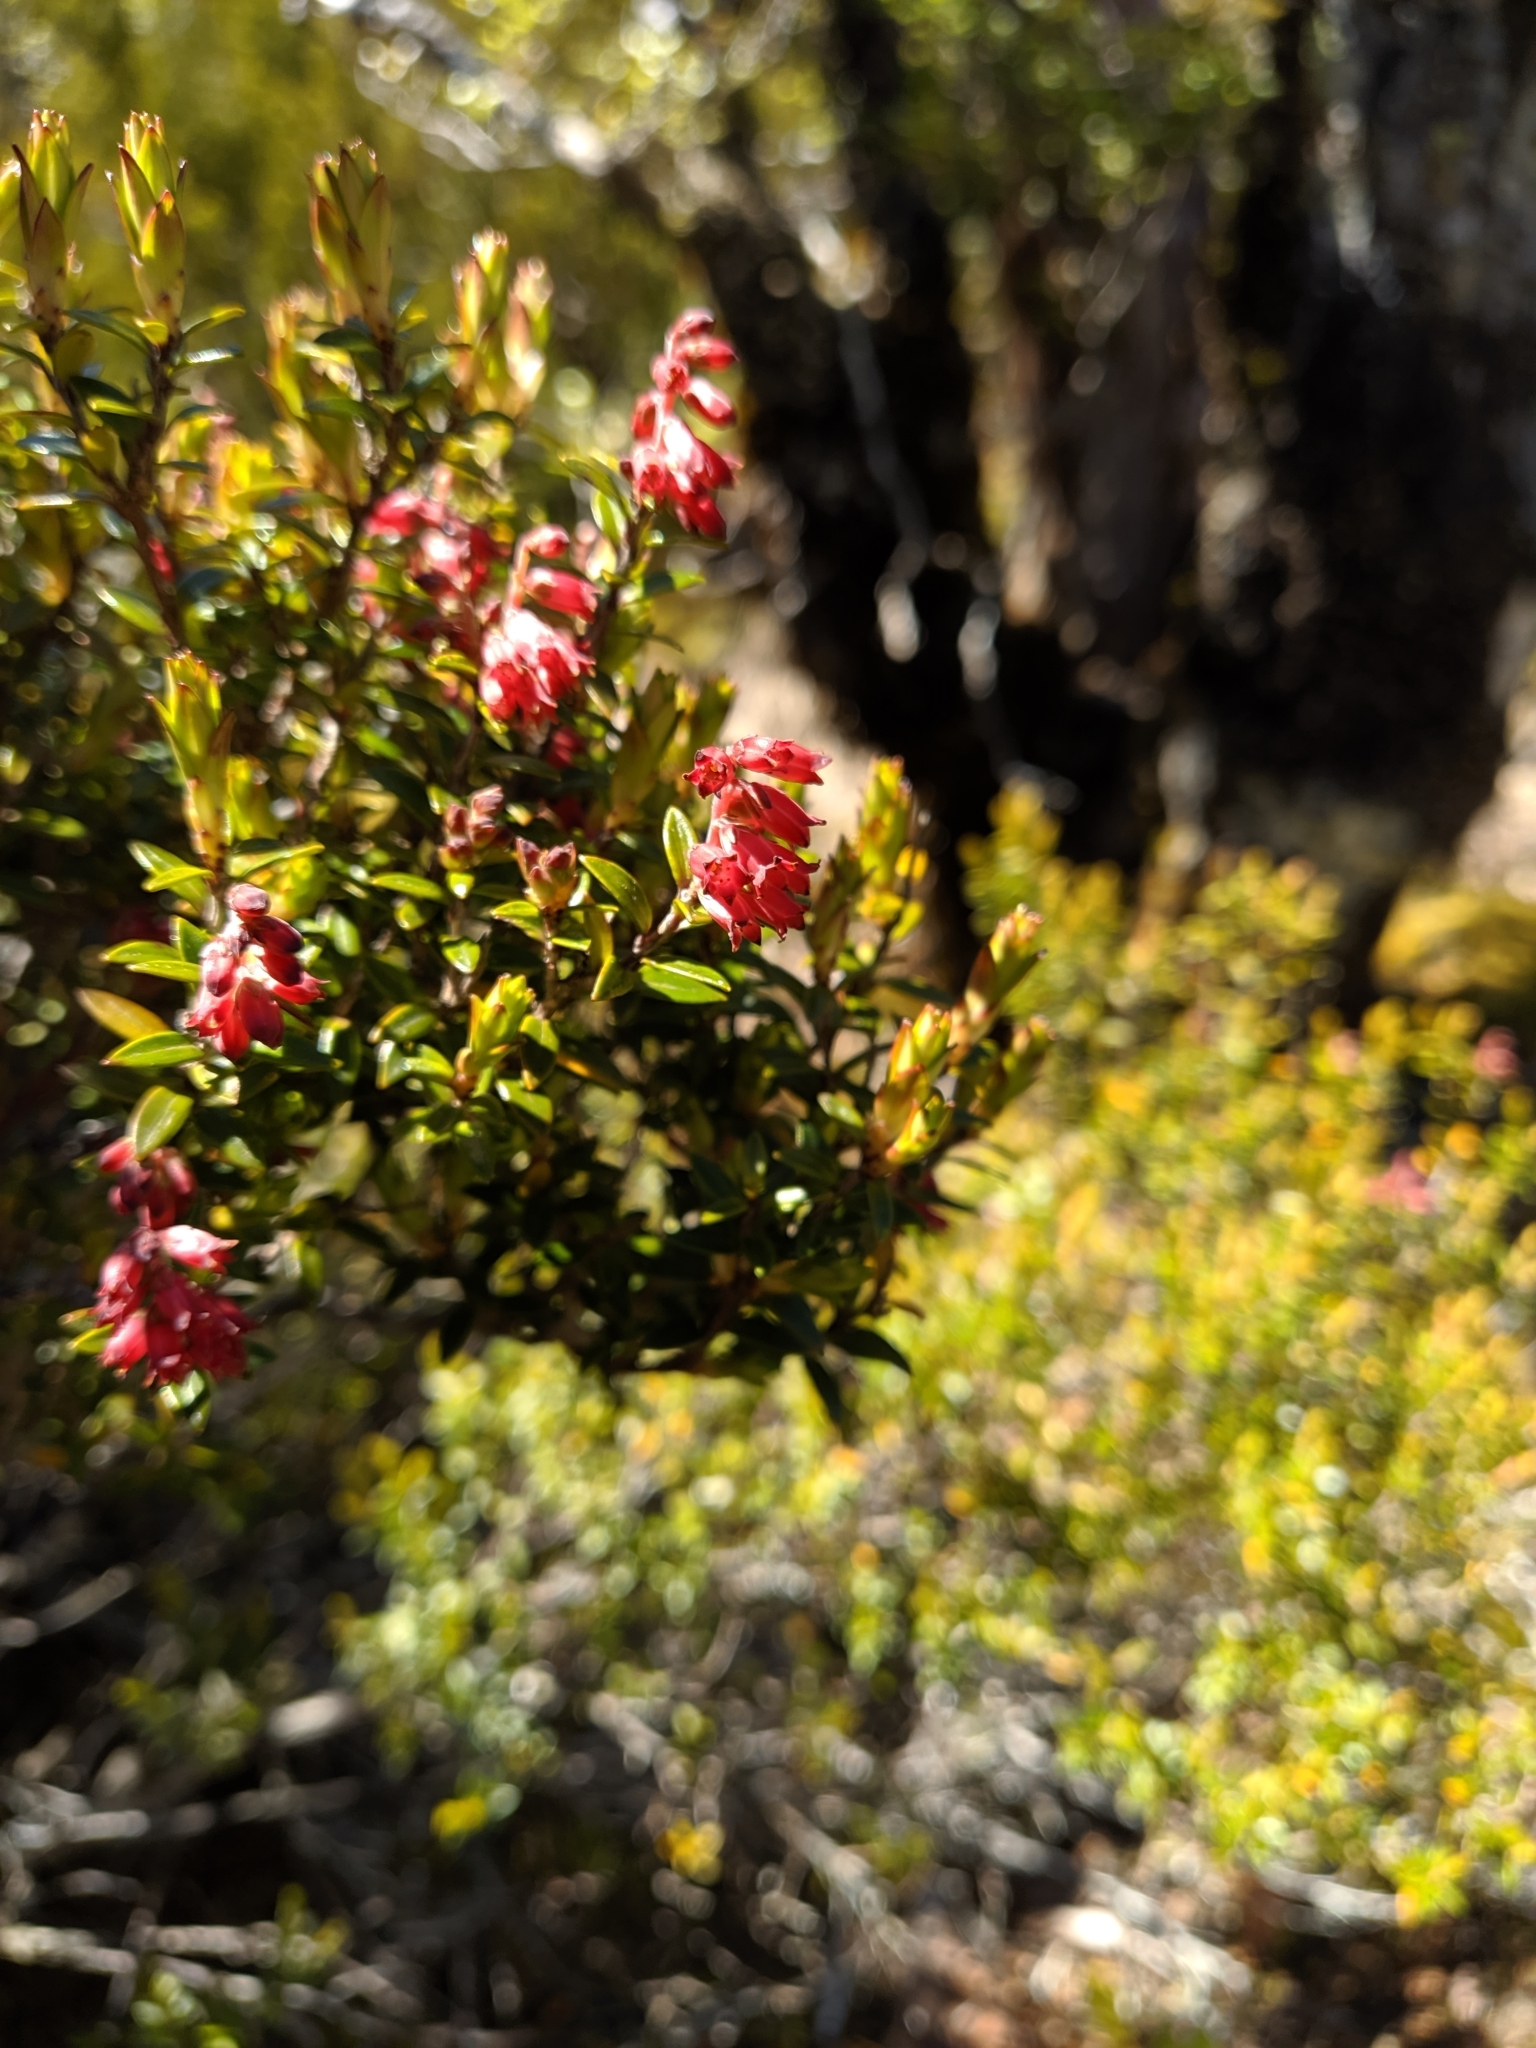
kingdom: Plantae
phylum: Tracheophyta
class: Magnoliopsida
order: Ericales
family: Ericaceae
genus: Archeria
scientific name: Archeria traversii
